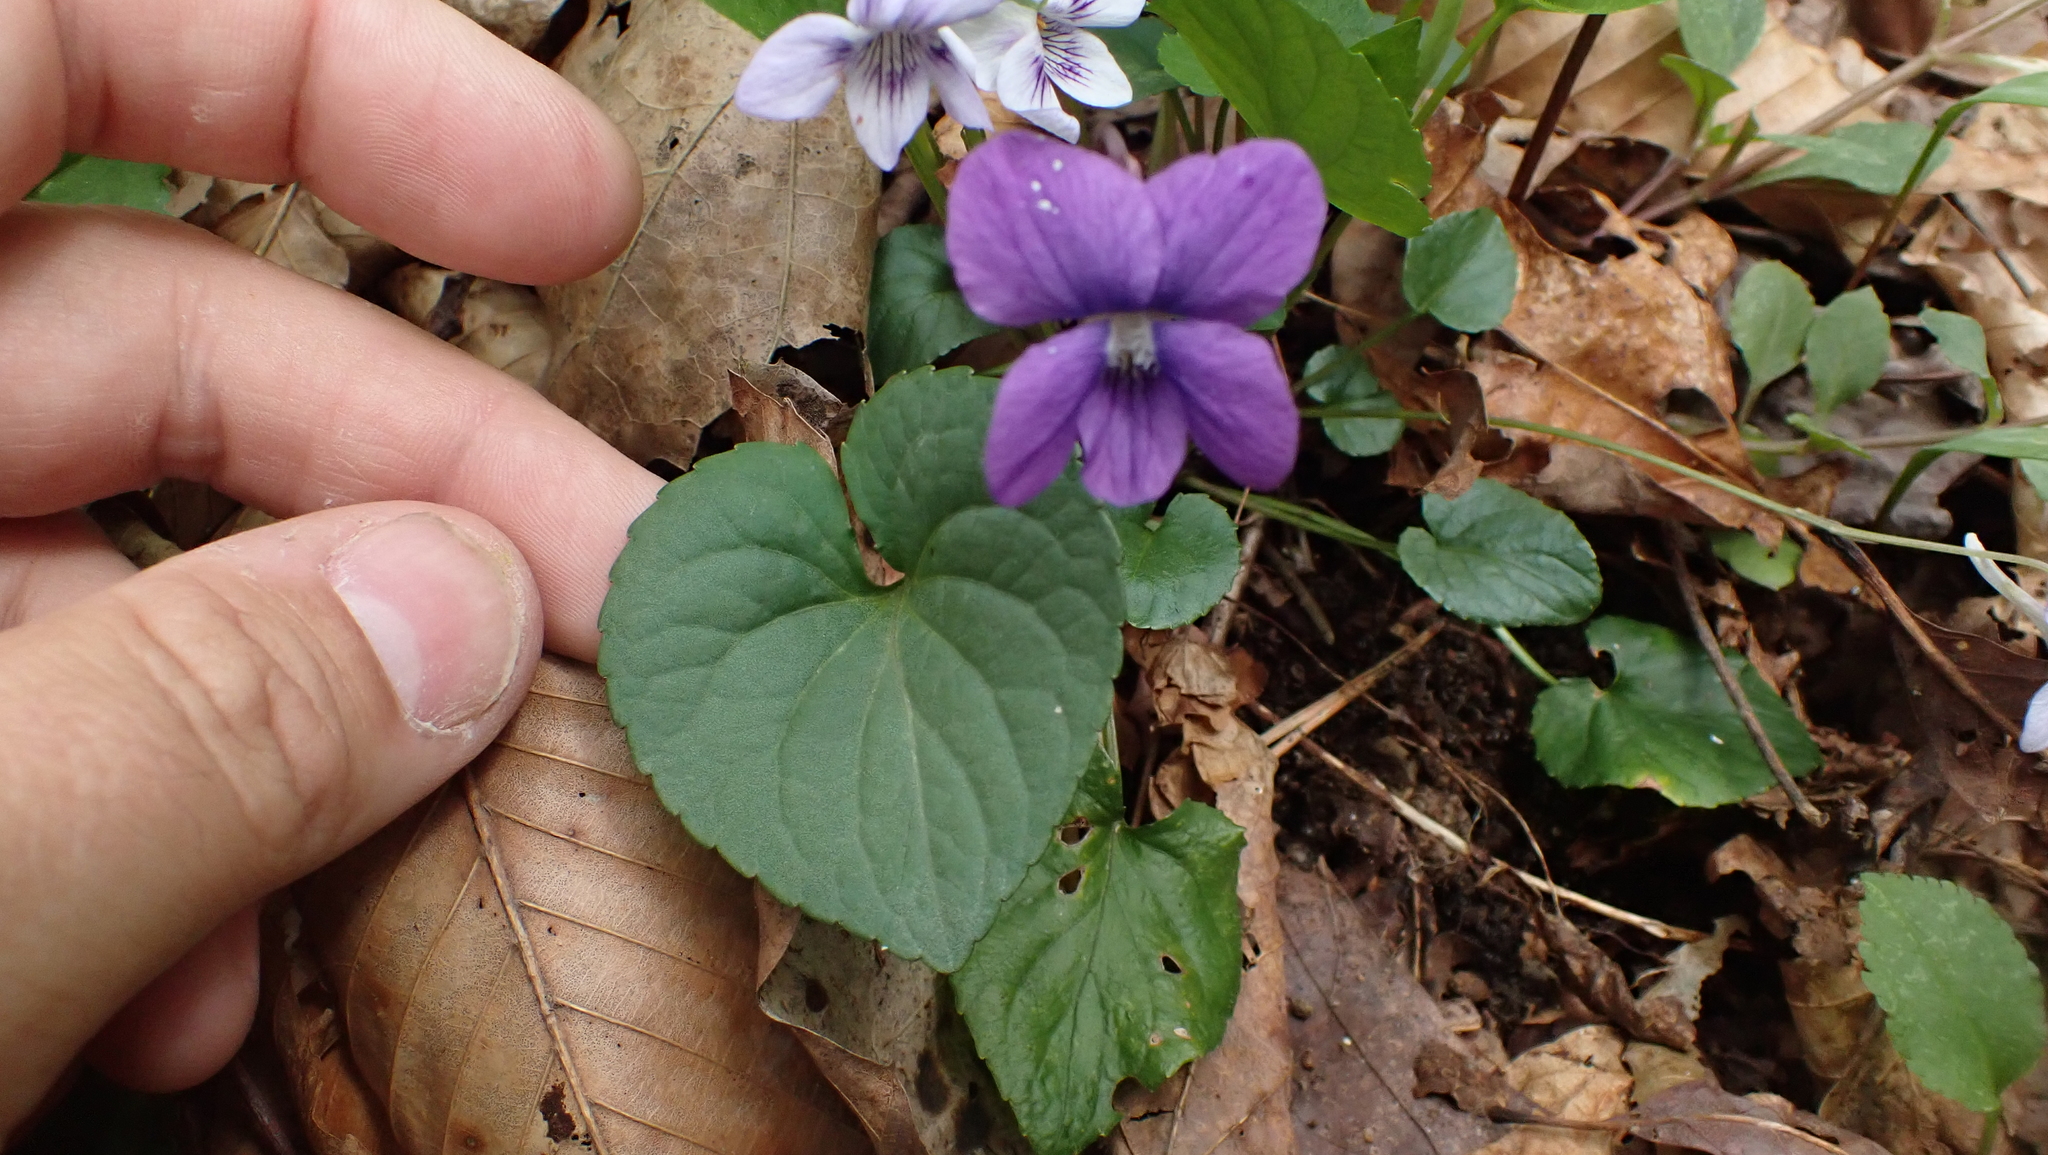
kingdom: Plantae
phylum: Tracheophyta
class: Magnoliopsida
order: Malpighiales
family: Violaceae
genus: Viola
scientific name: Viola sororia
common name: Dooryard violet
